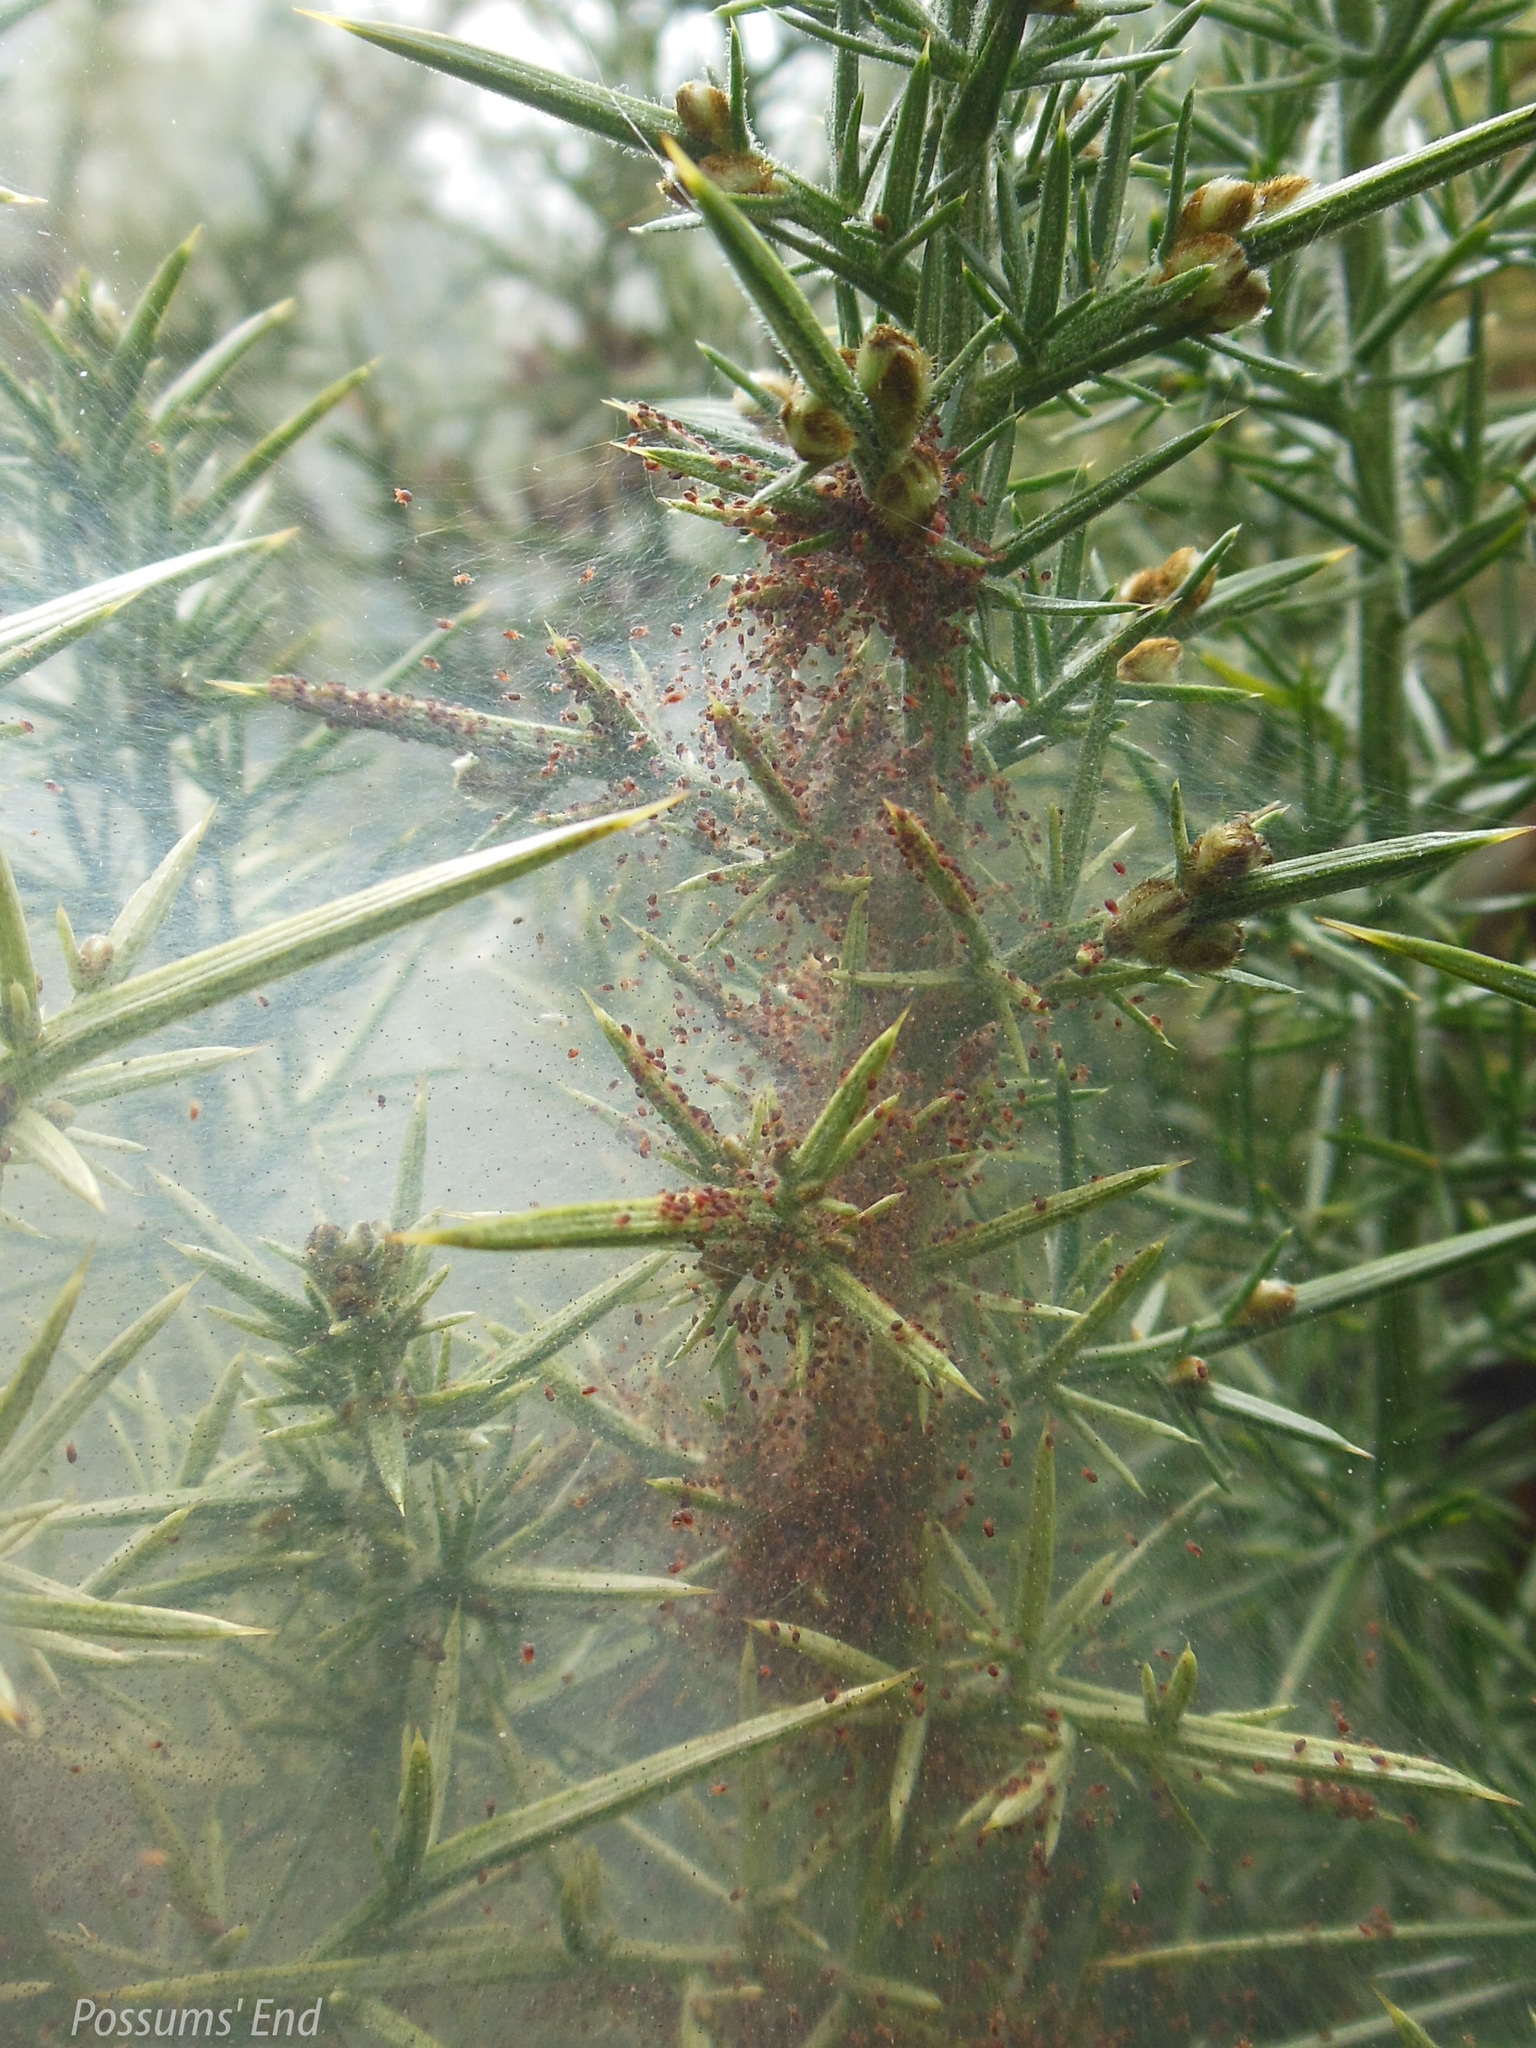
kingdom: Animalia
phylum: Arthropoda
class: Arachnida
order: Trombidiformes
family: Tetranychidae
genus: Tetranychus
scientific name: Tetranychus lintearius
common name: Gorse spider mite
